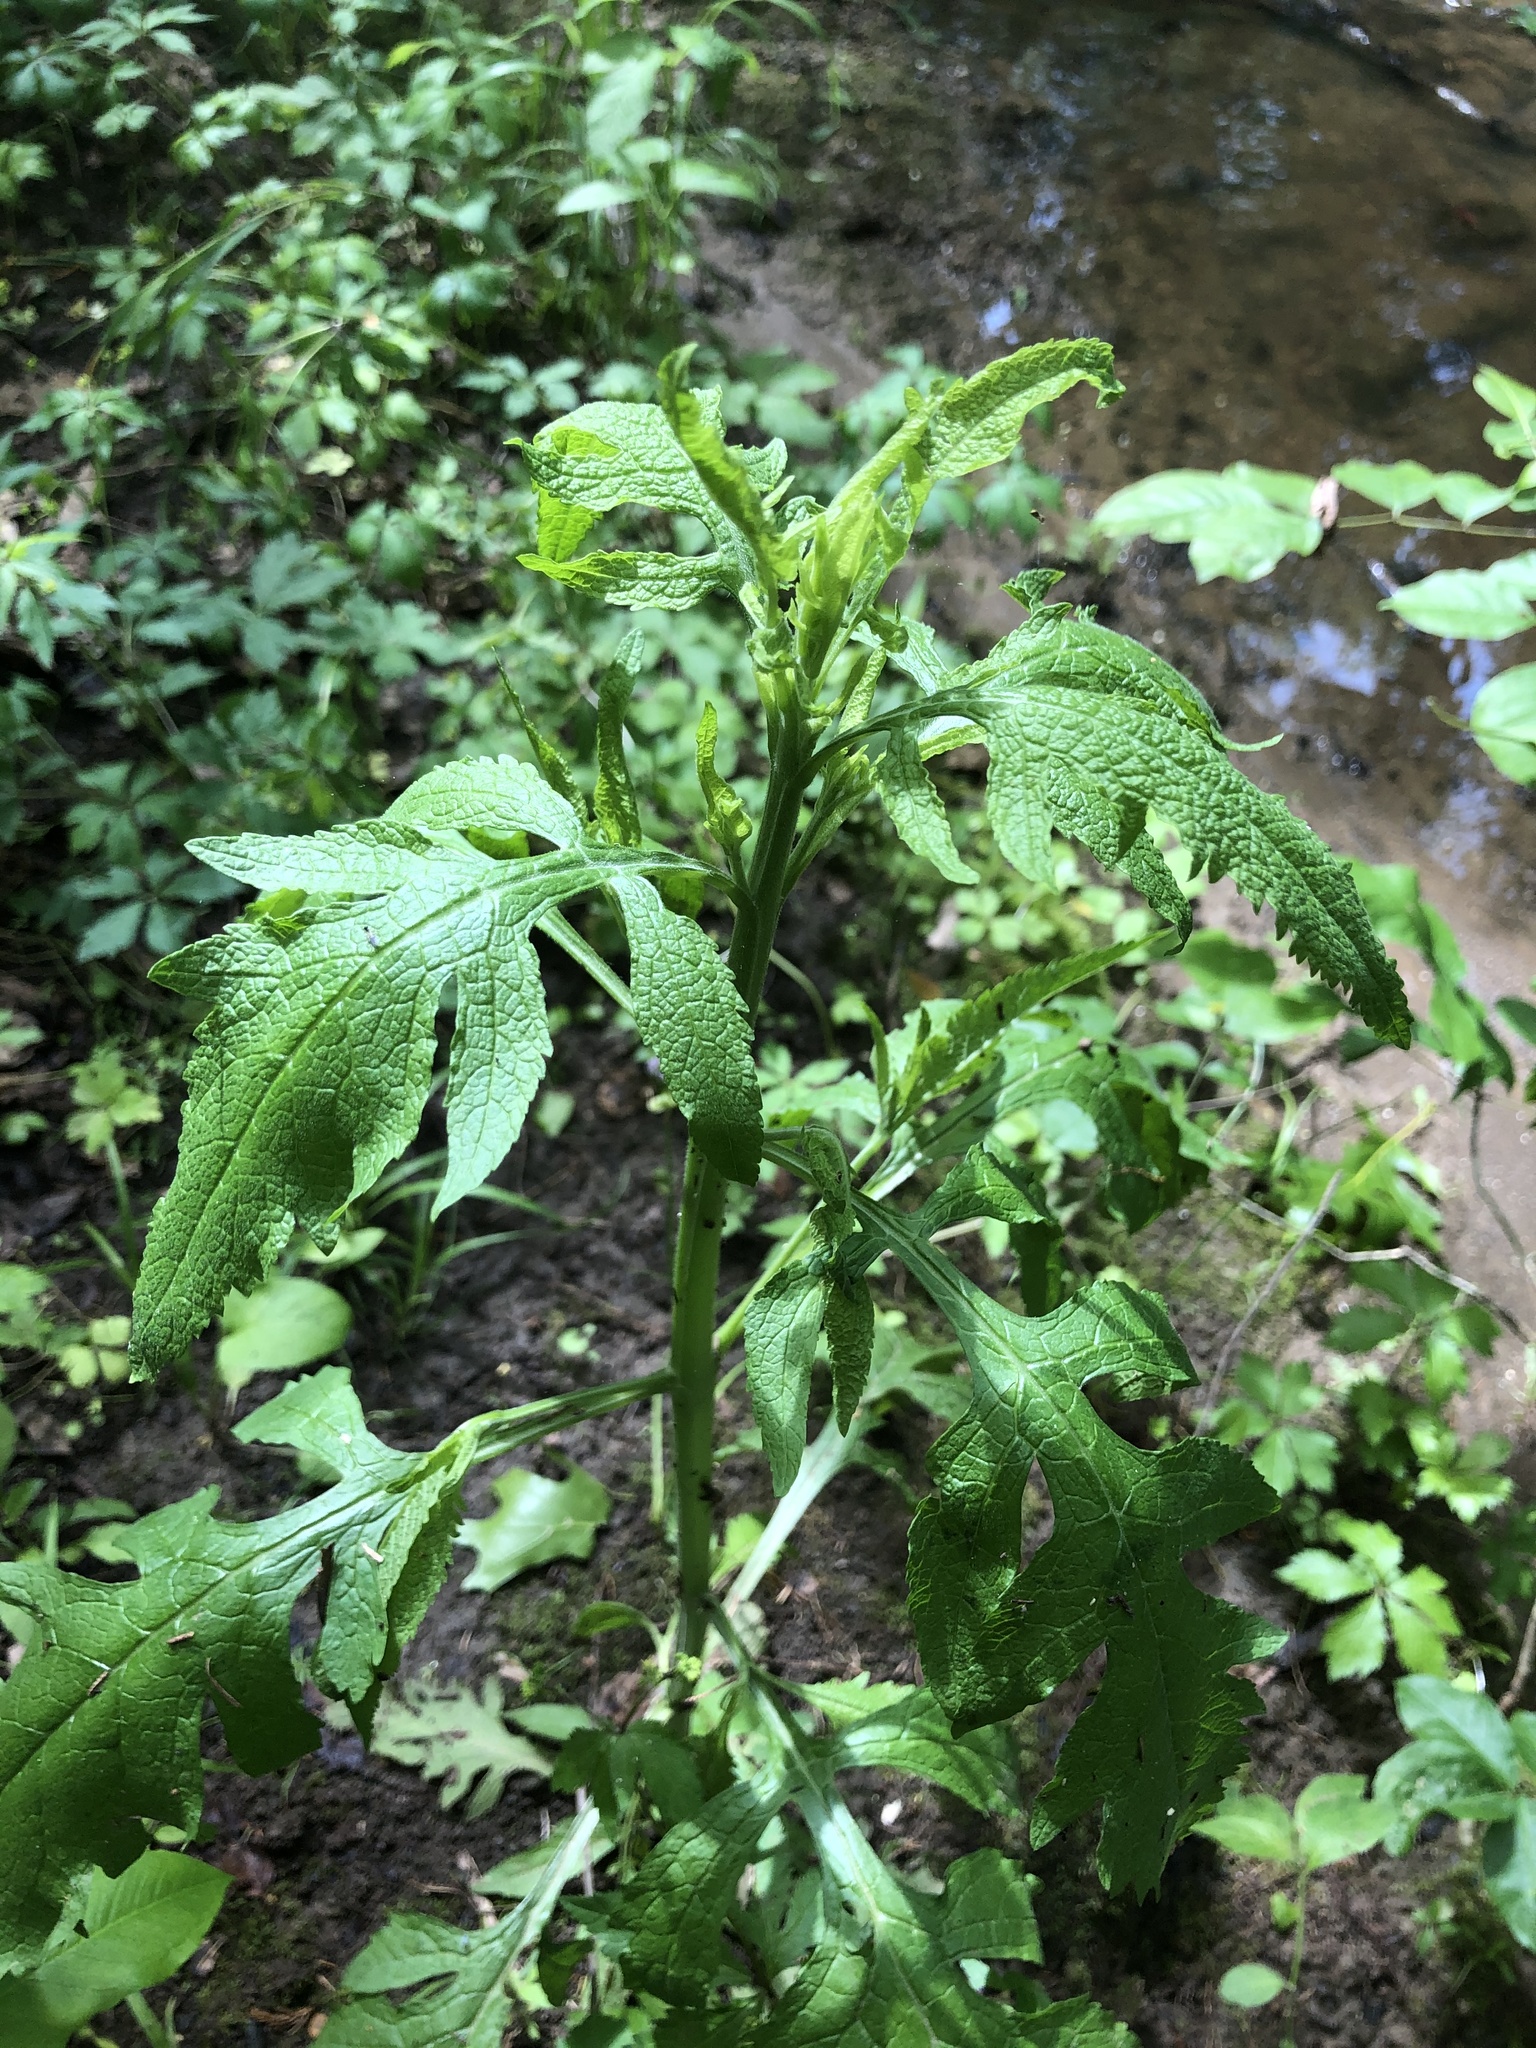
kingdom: Plantae
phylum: Tracheophyta
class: Magnoliopsida
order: Lamiales
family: Orobanchaceae
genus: Dasistoma
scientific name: Dasistoma macrophyllum
